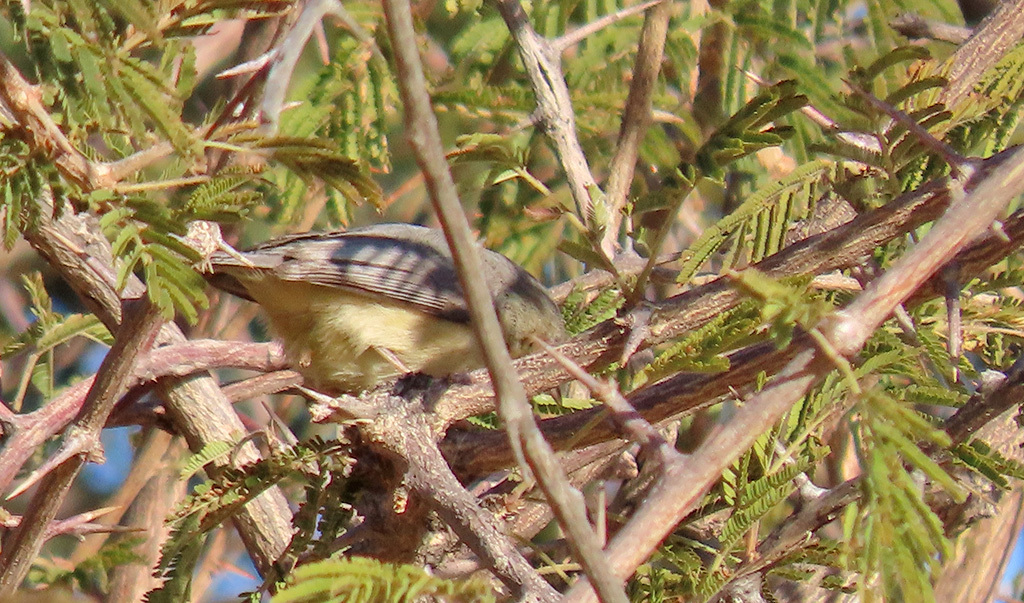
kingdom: Animalia
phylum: Chordata
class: Aves
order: Passeriformes
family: Cisticolidae
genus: Eremomela
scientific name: Eremomela icteropygialis
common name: Yellow-bellied eremomela
